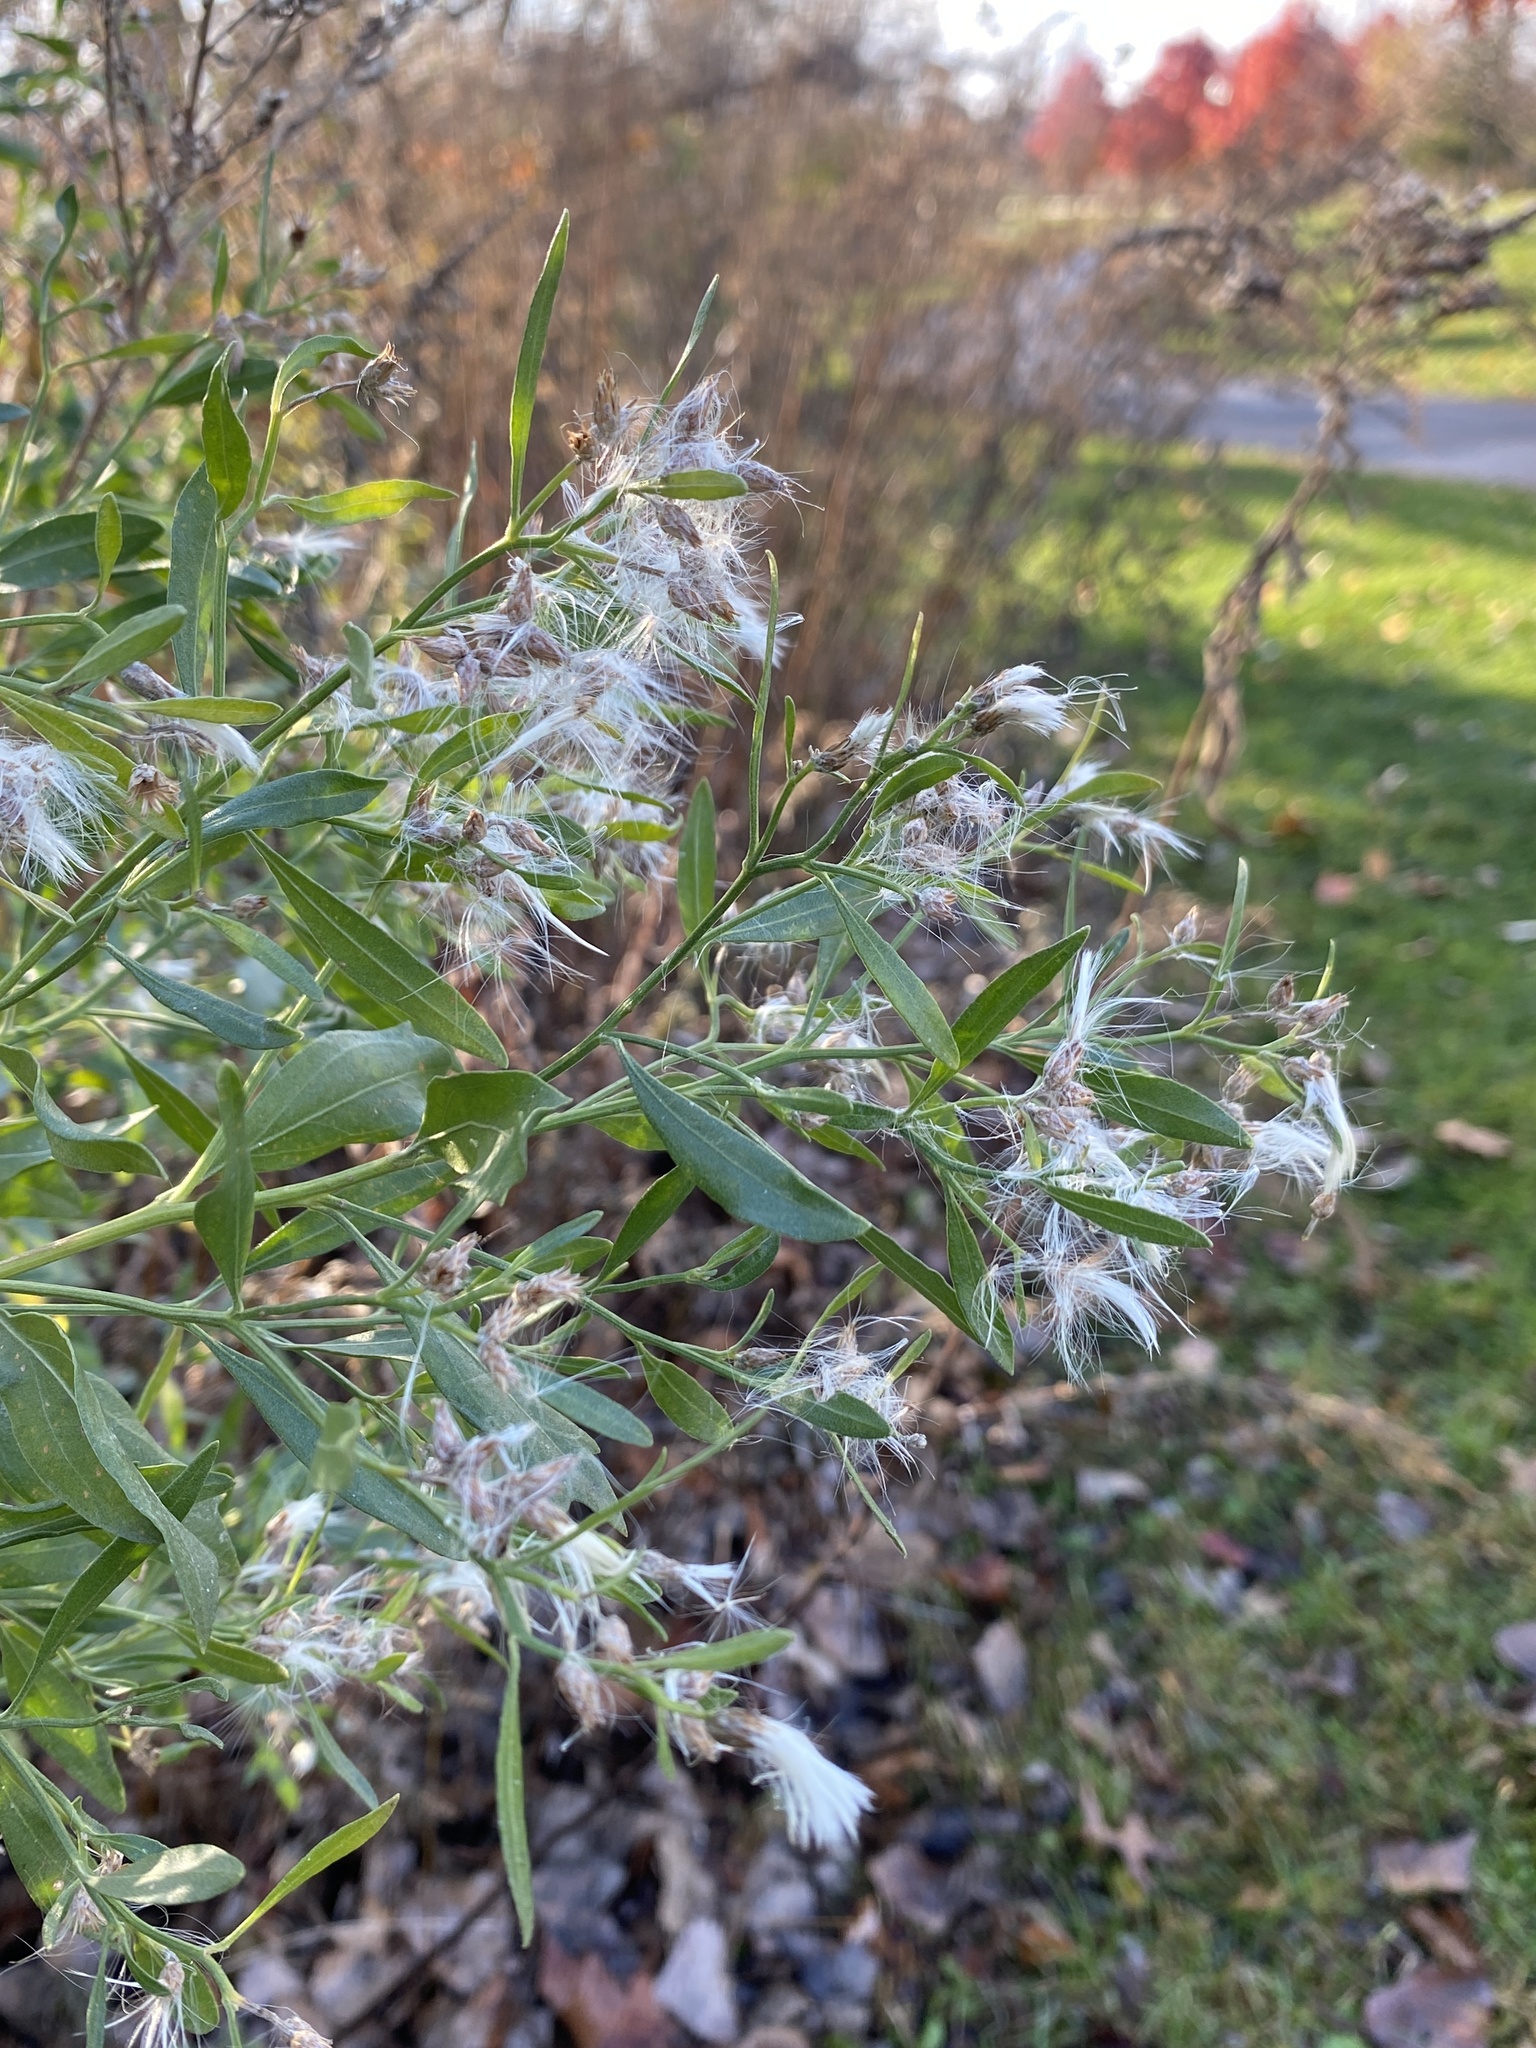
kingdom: Plantae
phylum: Tracheophyta
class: Magnoliopsida
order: Asterales
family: Asteraceae
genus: Baccharis
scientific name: Baccharis halimifolia
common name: Eastern baccharis
